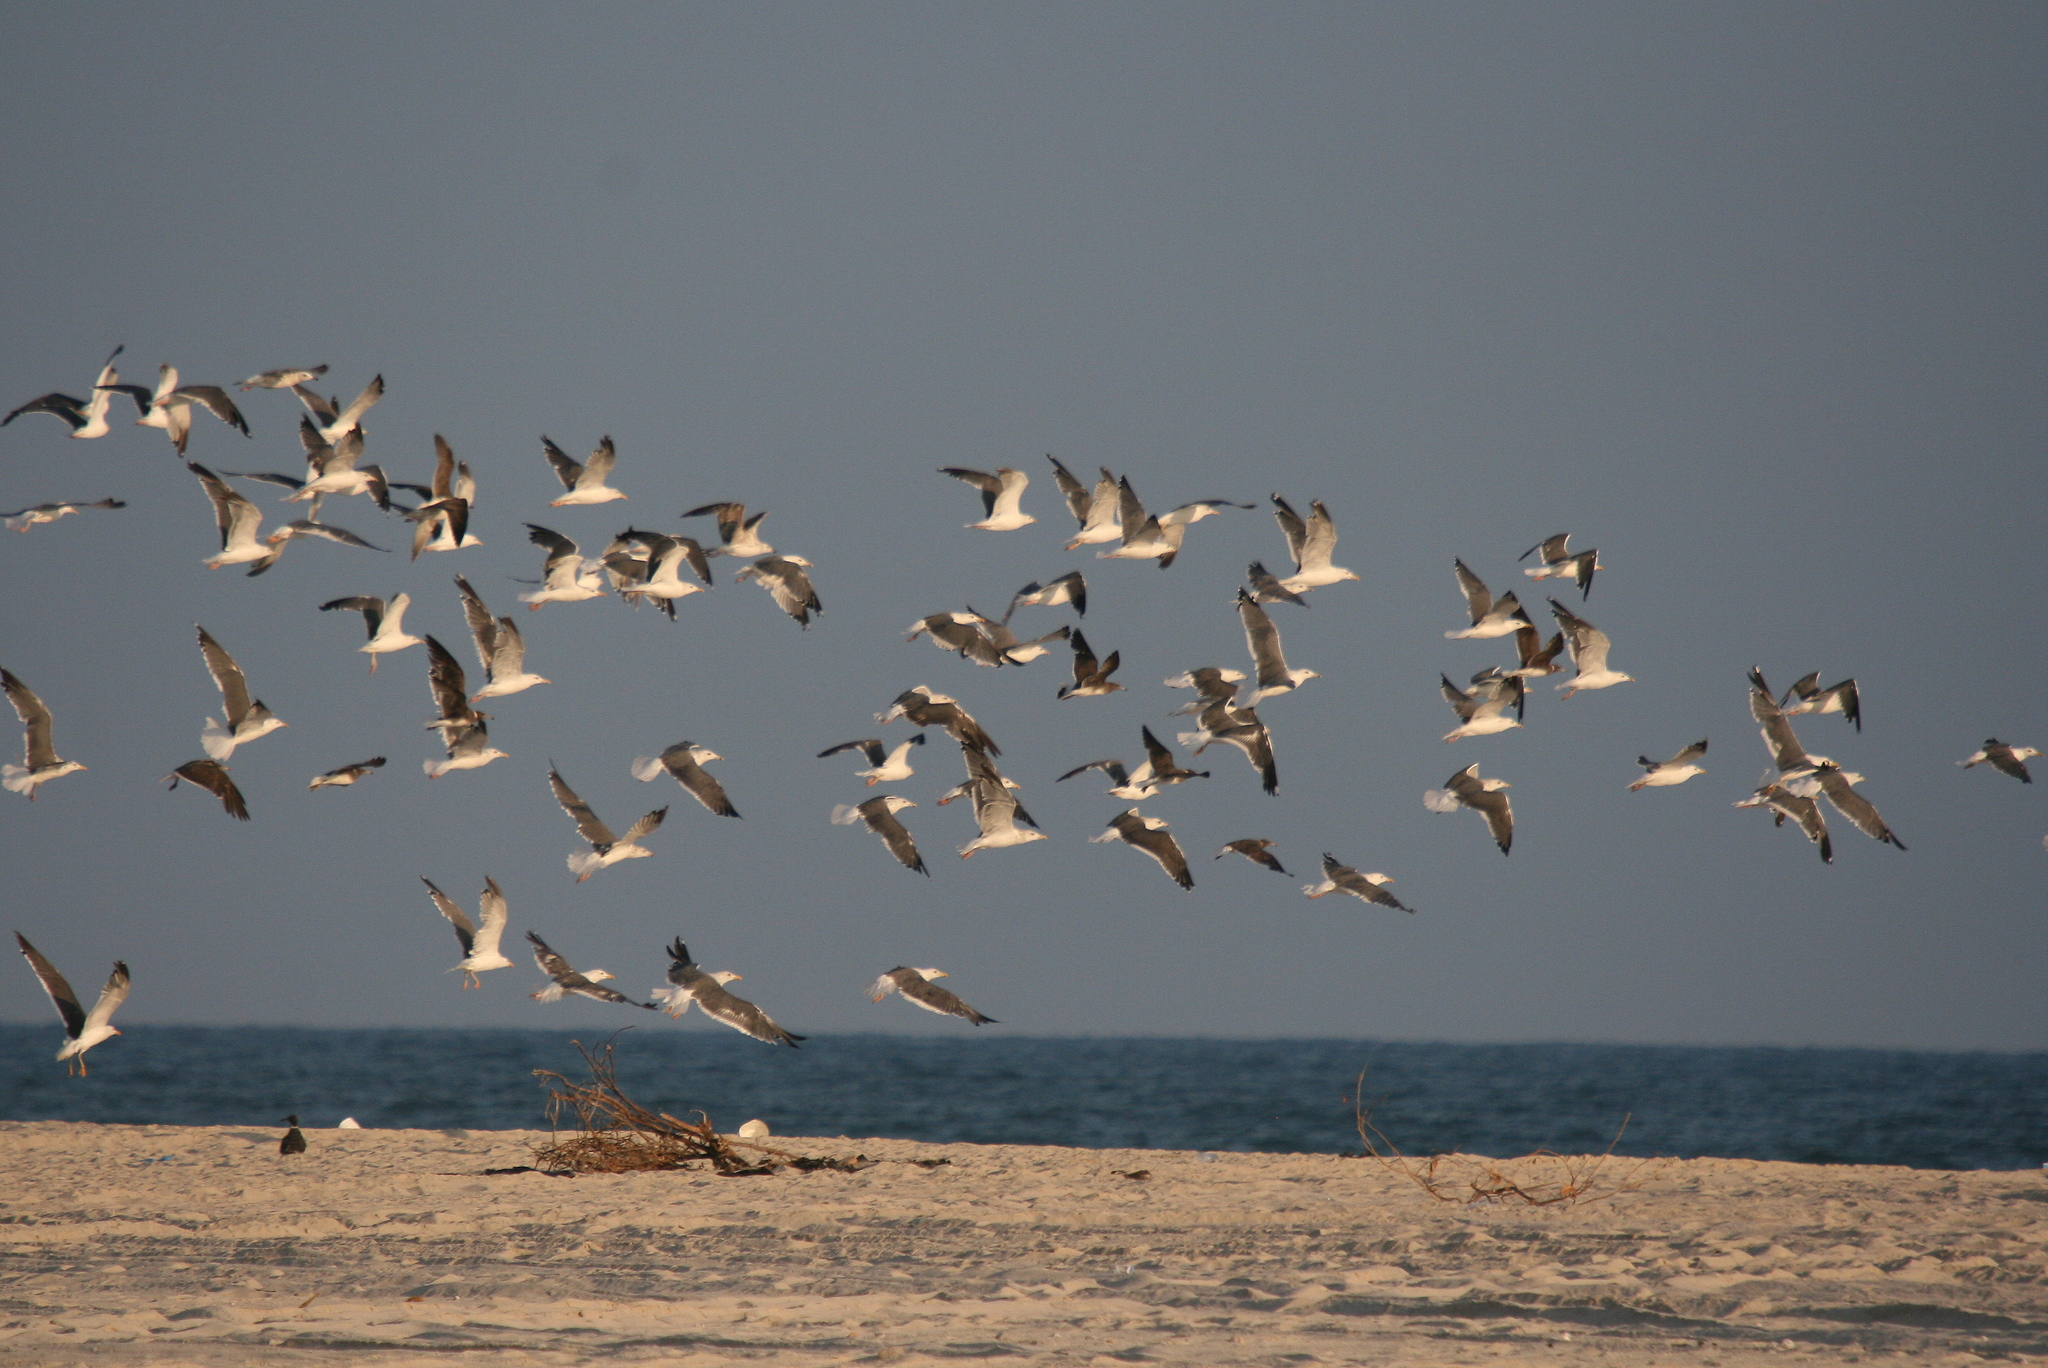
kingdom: Animalia
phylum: Chordata
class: Aves
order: Charadriiformes
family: Laridae
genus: Larus
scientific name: Larus fuscus
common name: Lesser black-backed gull
